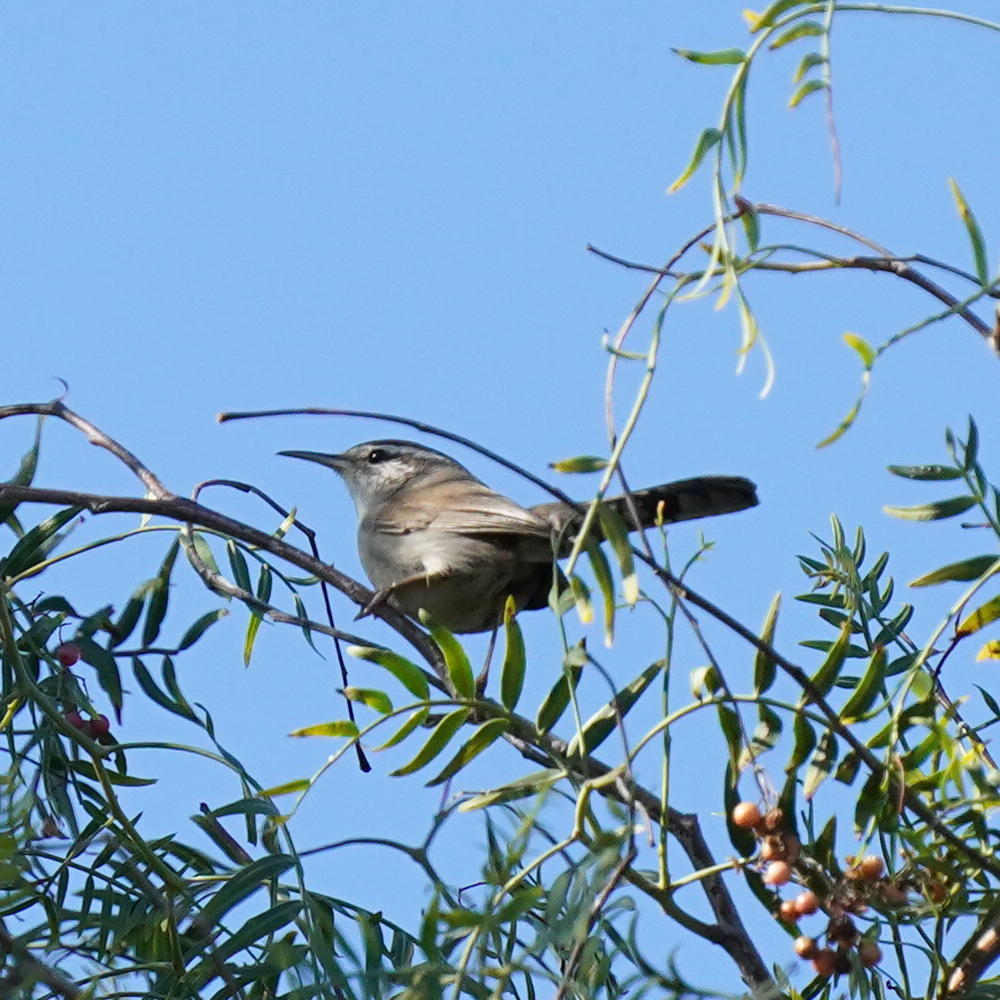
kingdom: Animalia
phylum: Chordata
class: Aves
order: Passeriformes
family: Troglodytidae
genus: Thryomanes
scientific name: Thryomanes bewickii
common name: Bewick's wren
